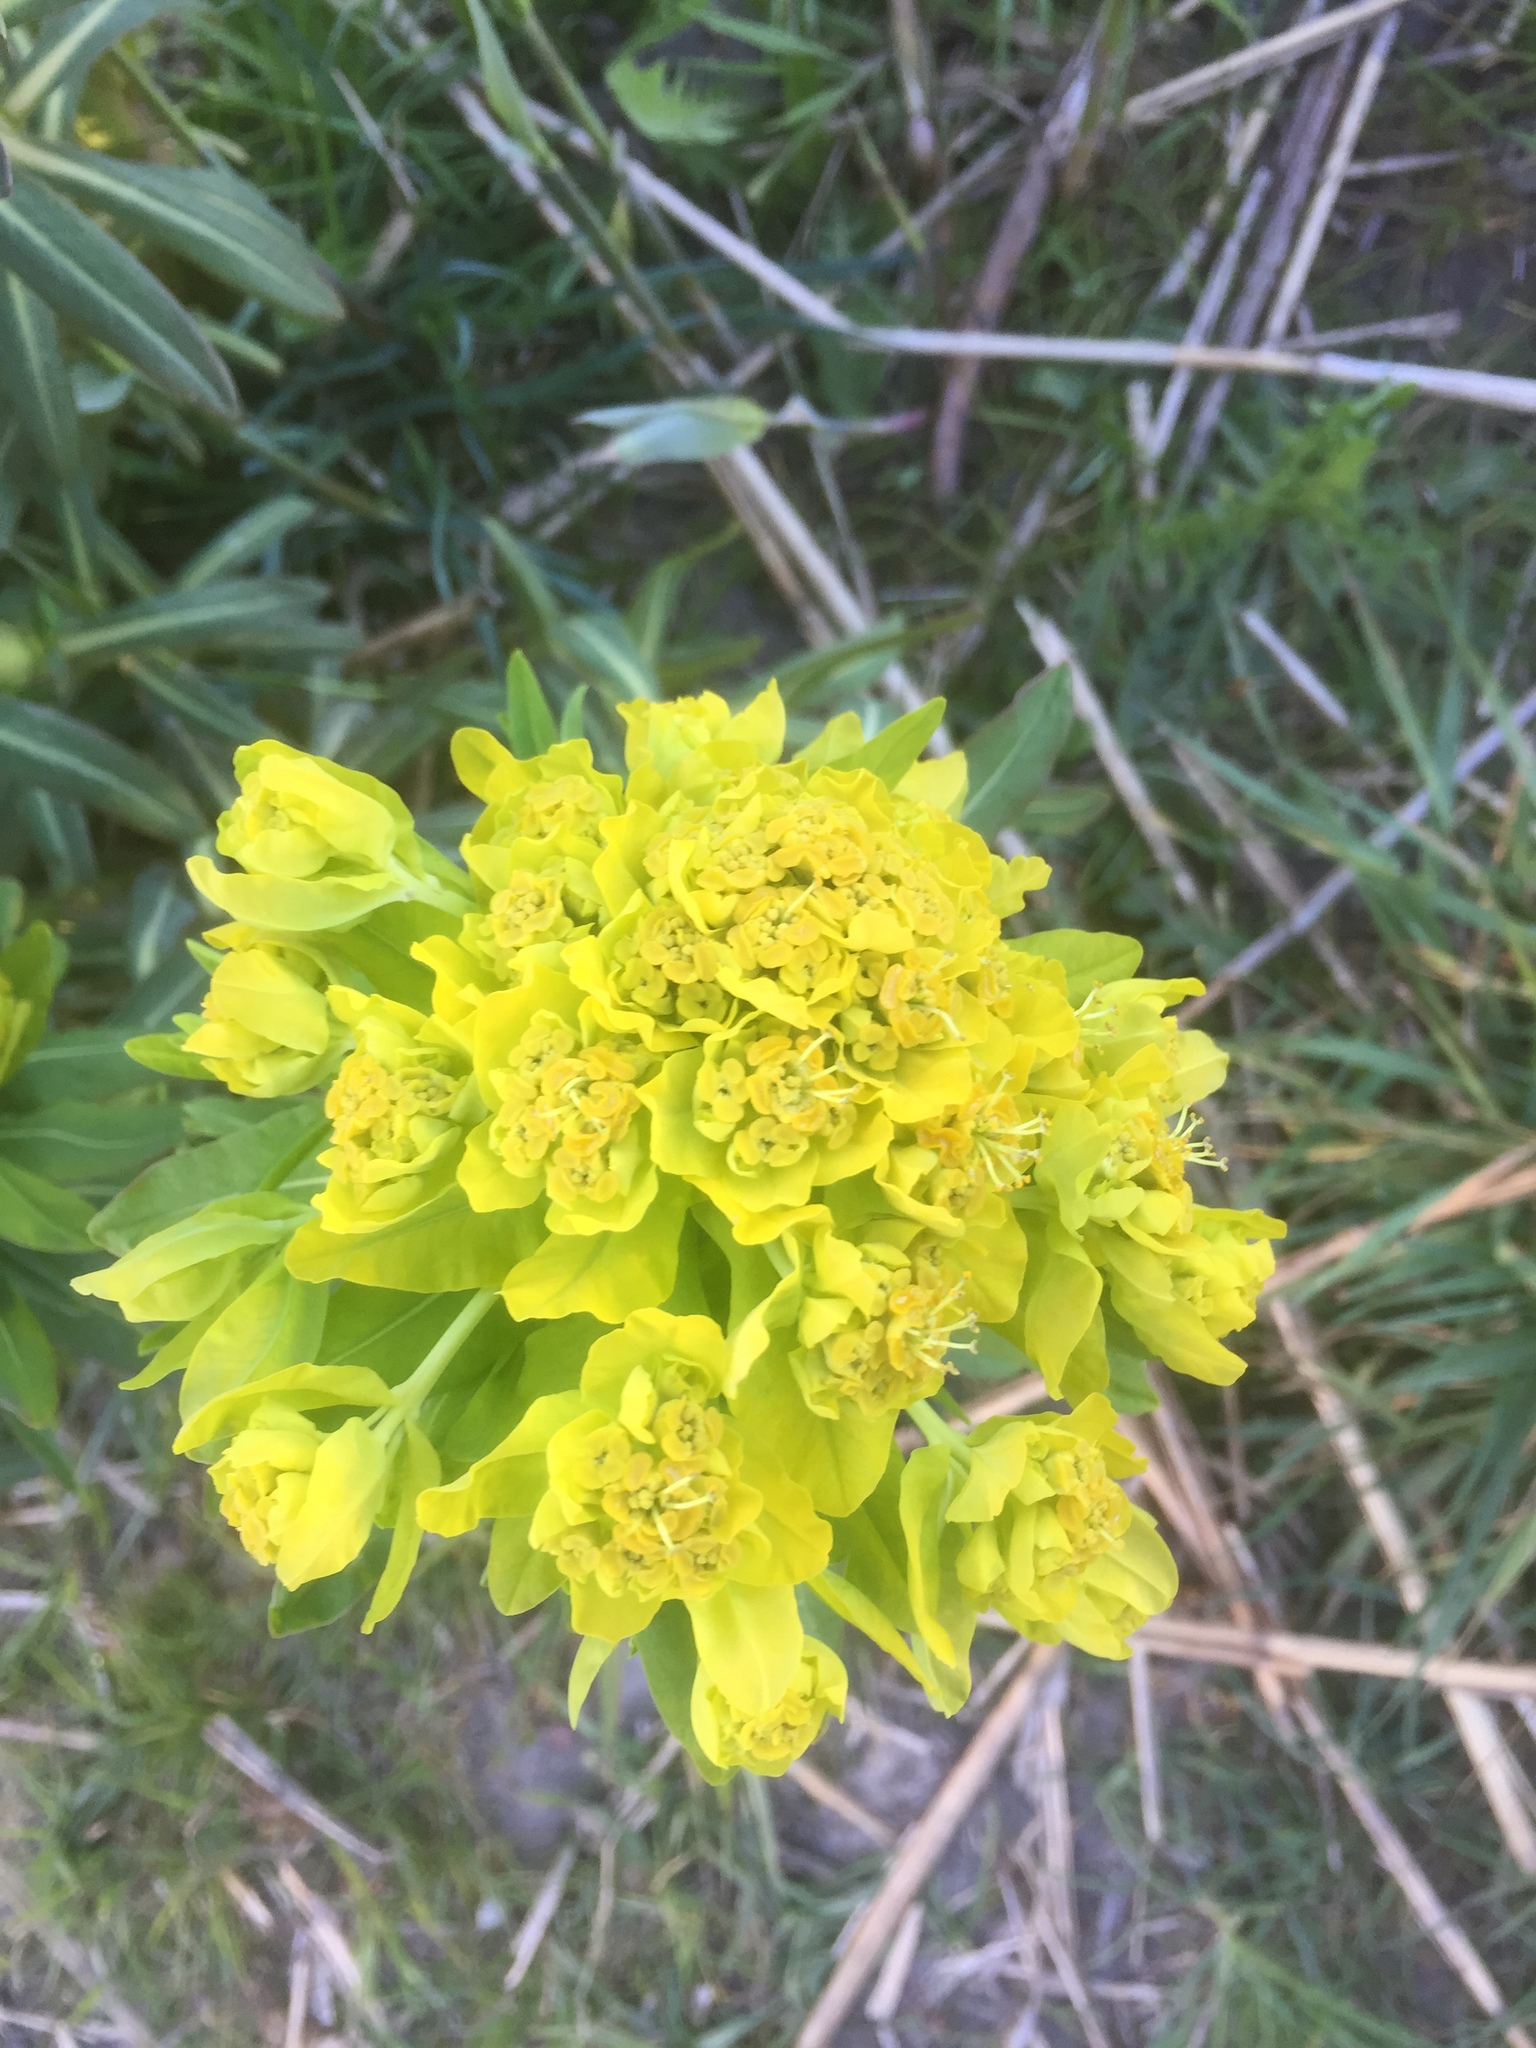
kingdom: Plantae
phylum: Tracheophyta
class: Magnoliopsida
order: Malpighiales
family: Euphorbiaceae
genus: Euphorbia
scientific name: Euphorbia palustris
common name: Marsh spurge
